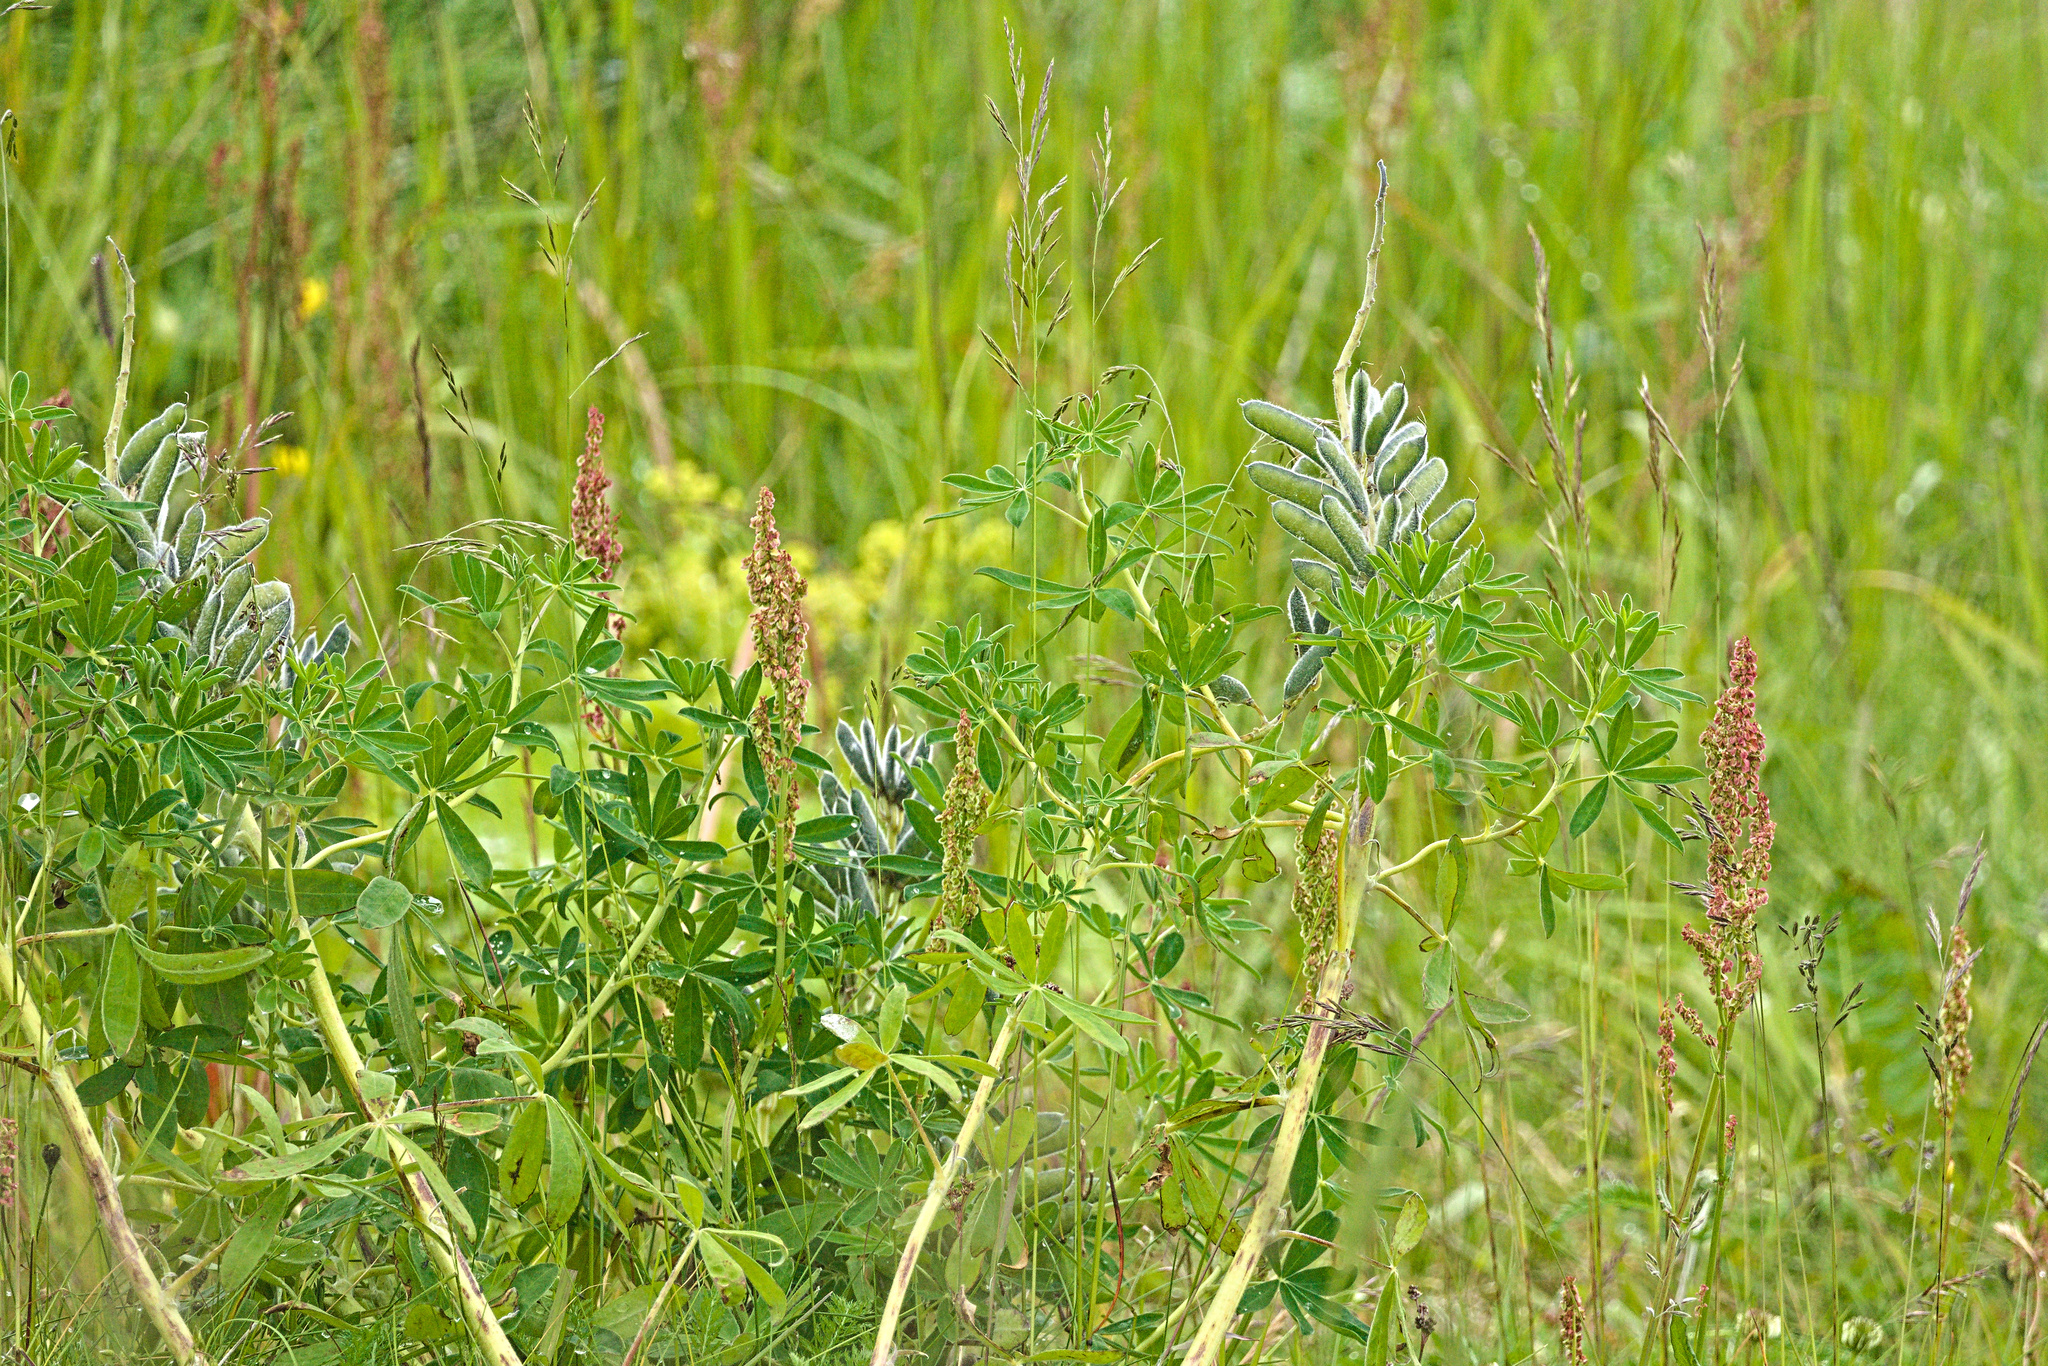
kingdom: Plantae
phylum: Tracheophyta
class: Magnoliopsida
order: Fabales
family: Fabaceae
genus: Lupinus
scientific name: Lupinus nootkatensis
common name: Nootka lupine
